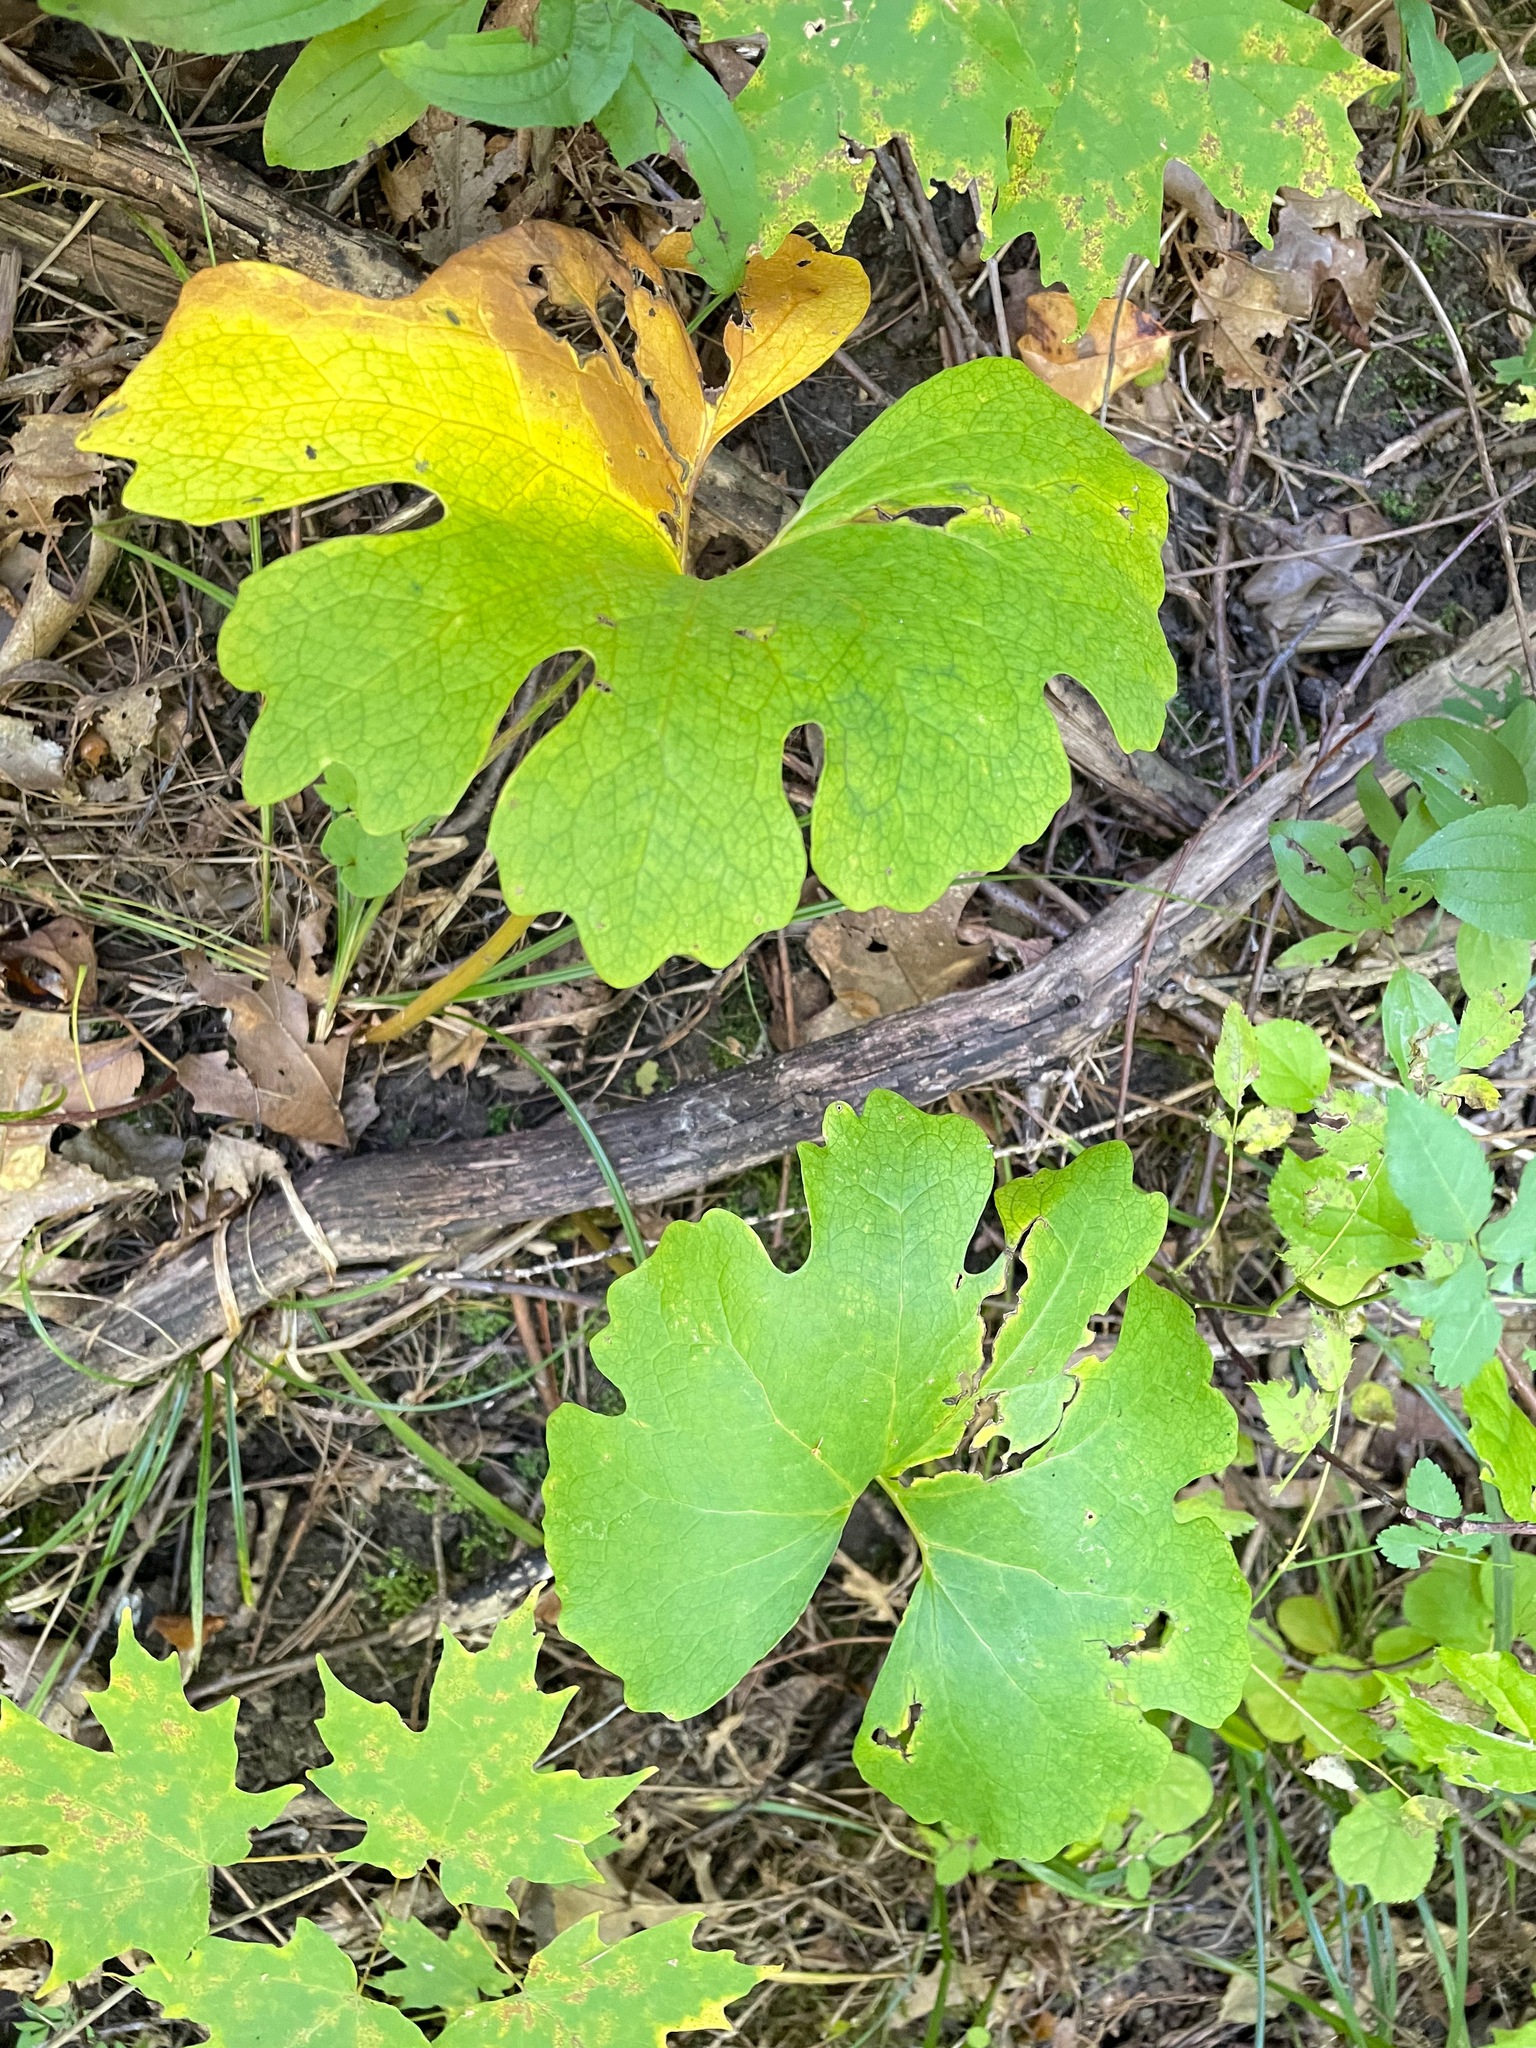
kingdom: Plantae
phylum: Tracheophyta
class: Magnoliopsida
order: Ranunculales
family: Papaveraceae
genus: Sanguinaria
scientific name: Sanguinaria canadensis
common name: Bloodroot
